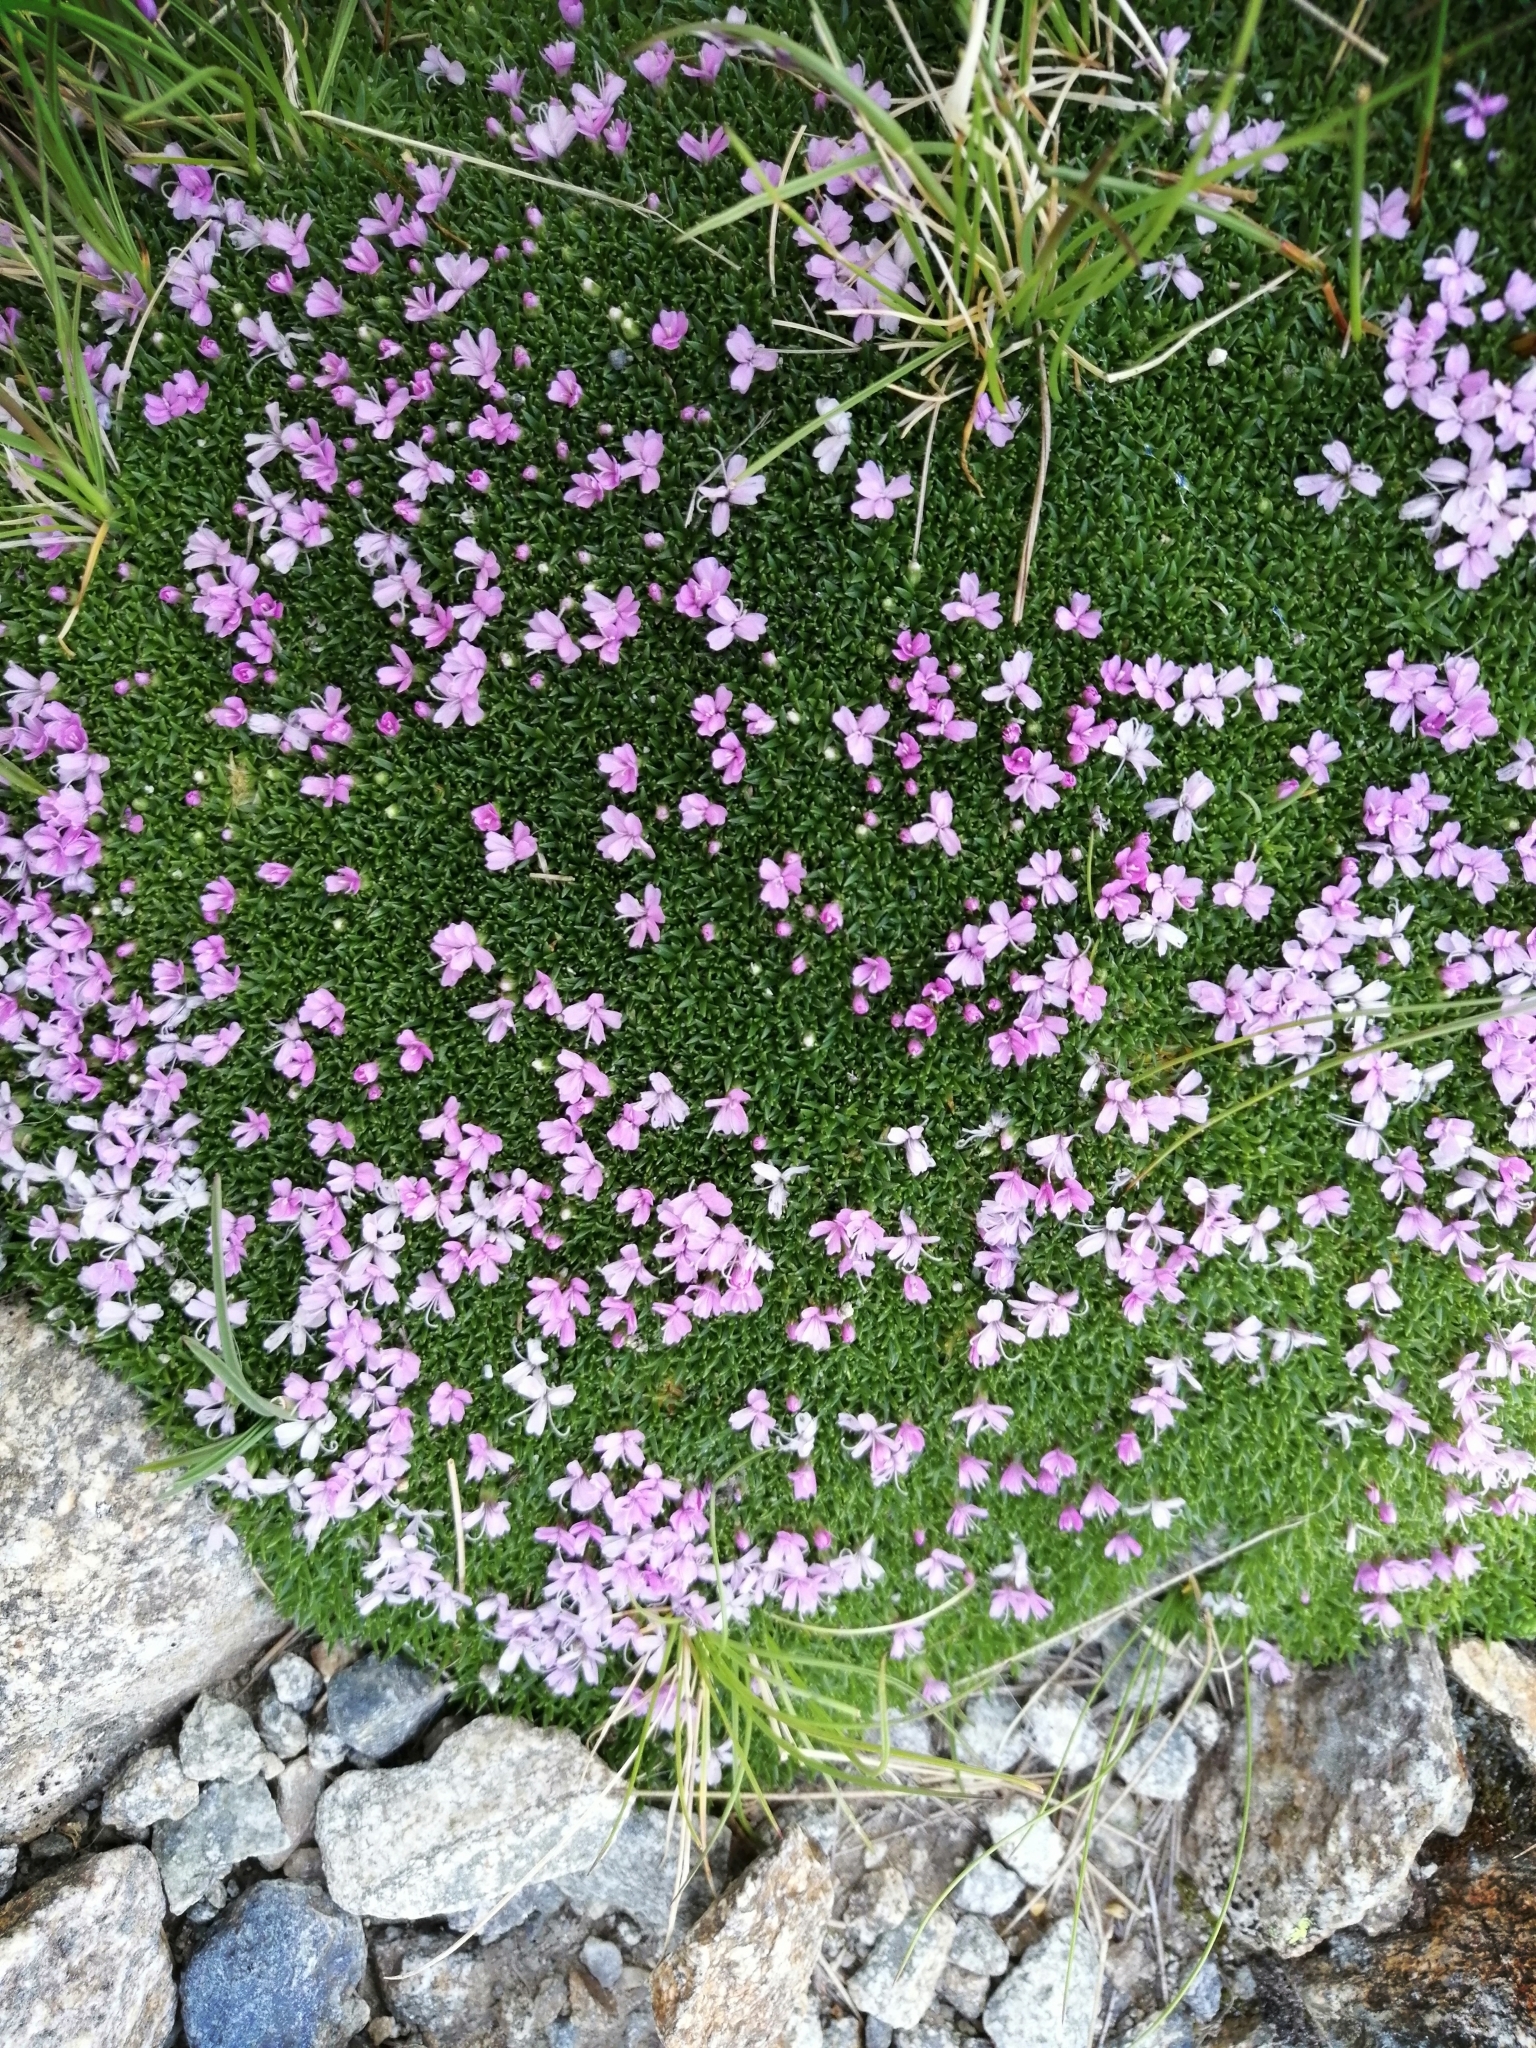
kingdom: Plantae
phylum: Tracheophyta
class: Magnoliopsida
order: Caryophyllales
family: Caryophyllaceae
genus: Silene
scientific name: Silene acaulis
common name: Moss campion
